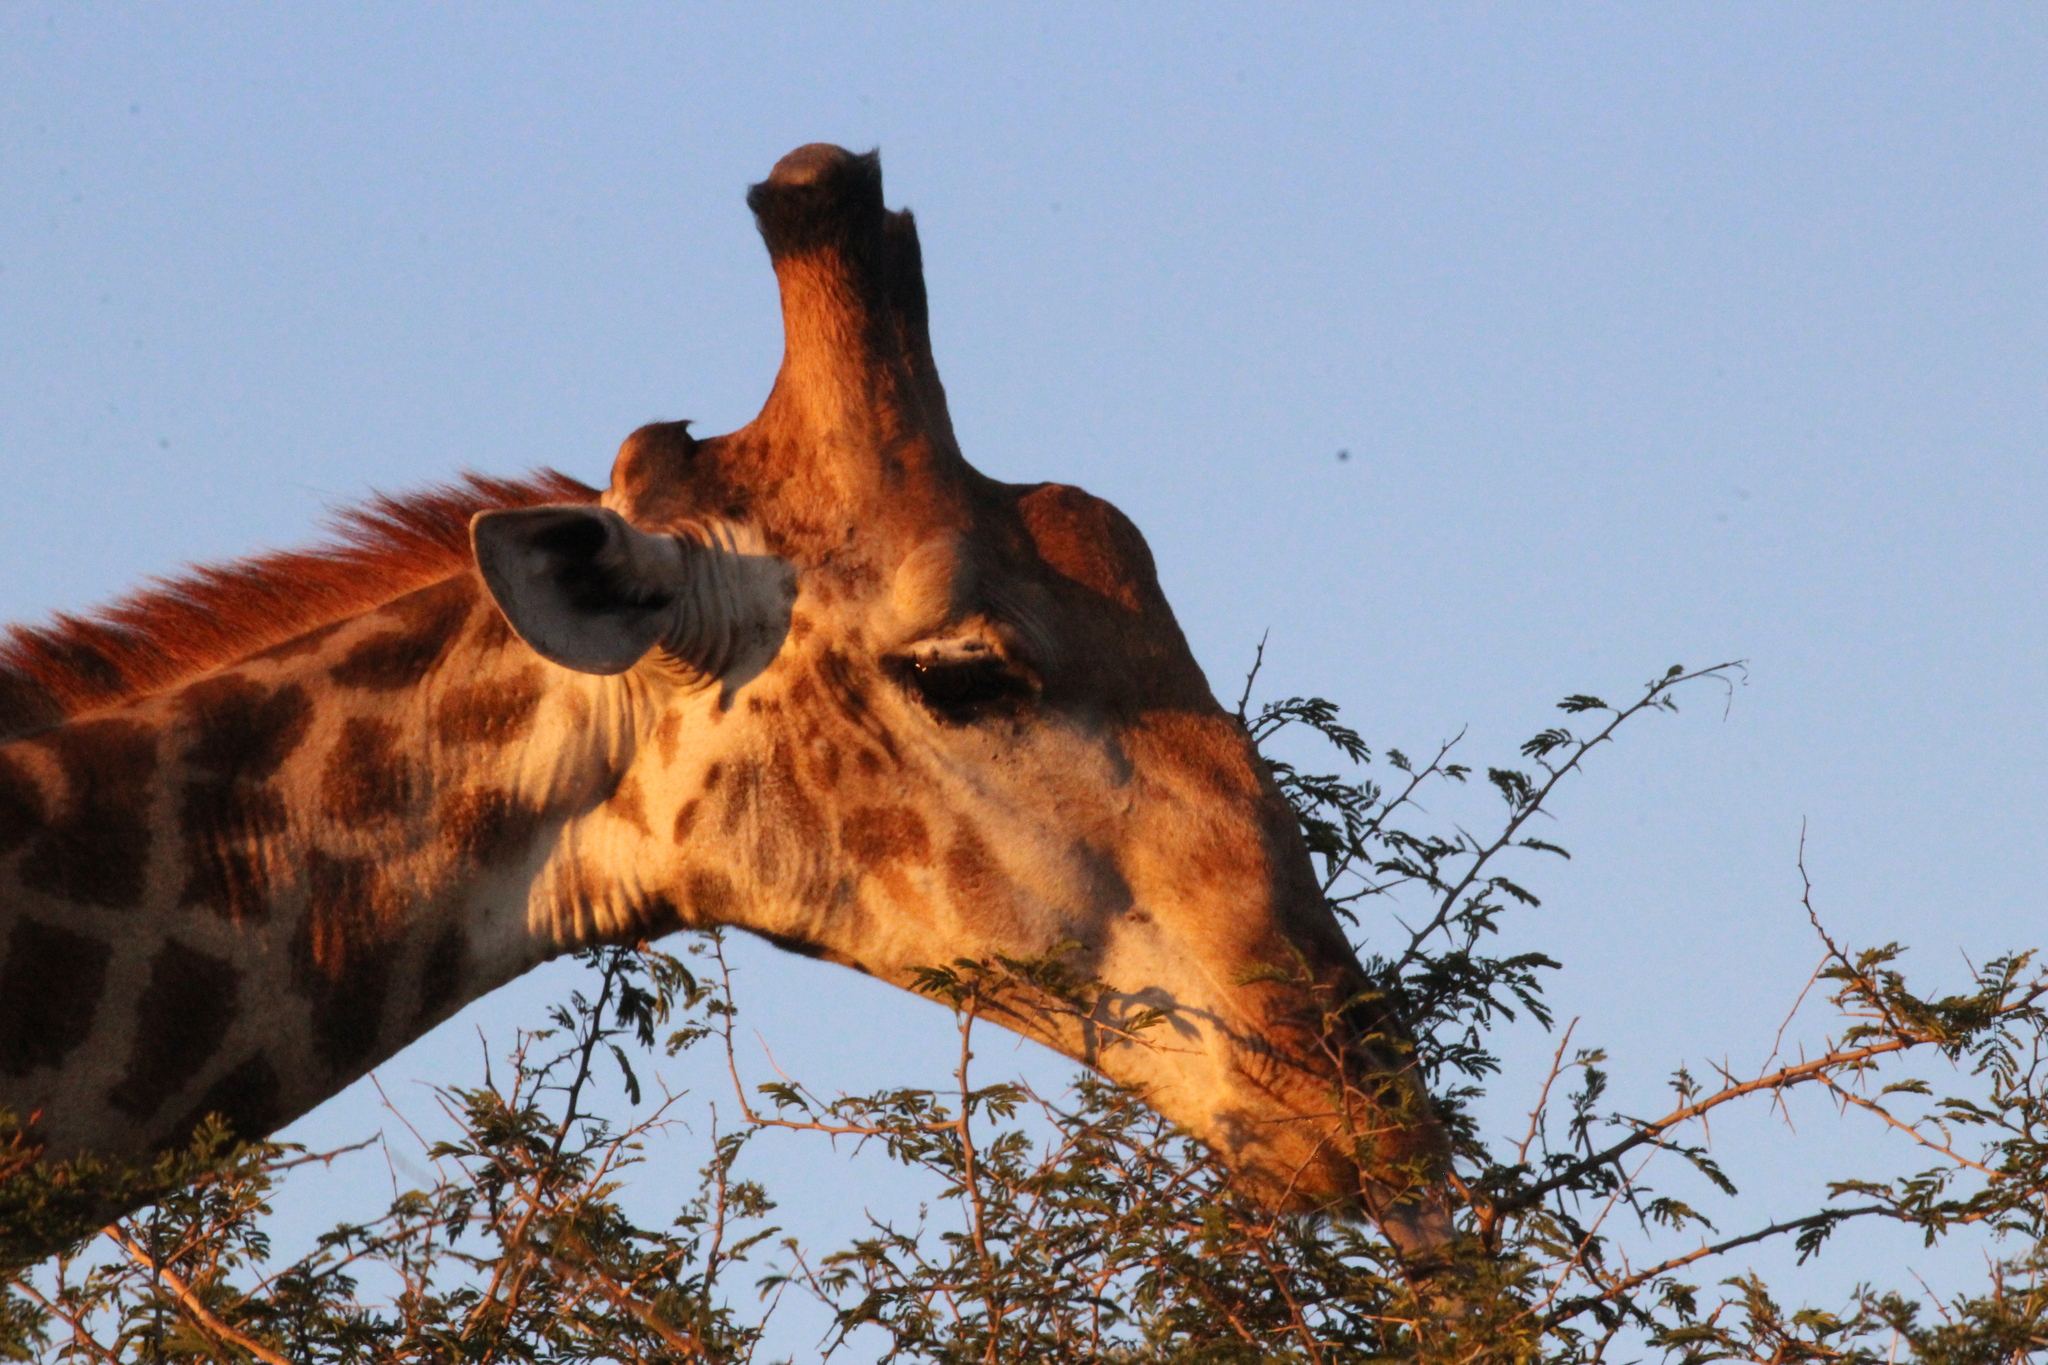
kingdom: Animalia
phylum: Chordata
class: Mammalia
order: Artiodactyla
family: Giraffidae
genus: Giraffa
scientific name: Giraffa giraffa
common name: Southern giraffe
